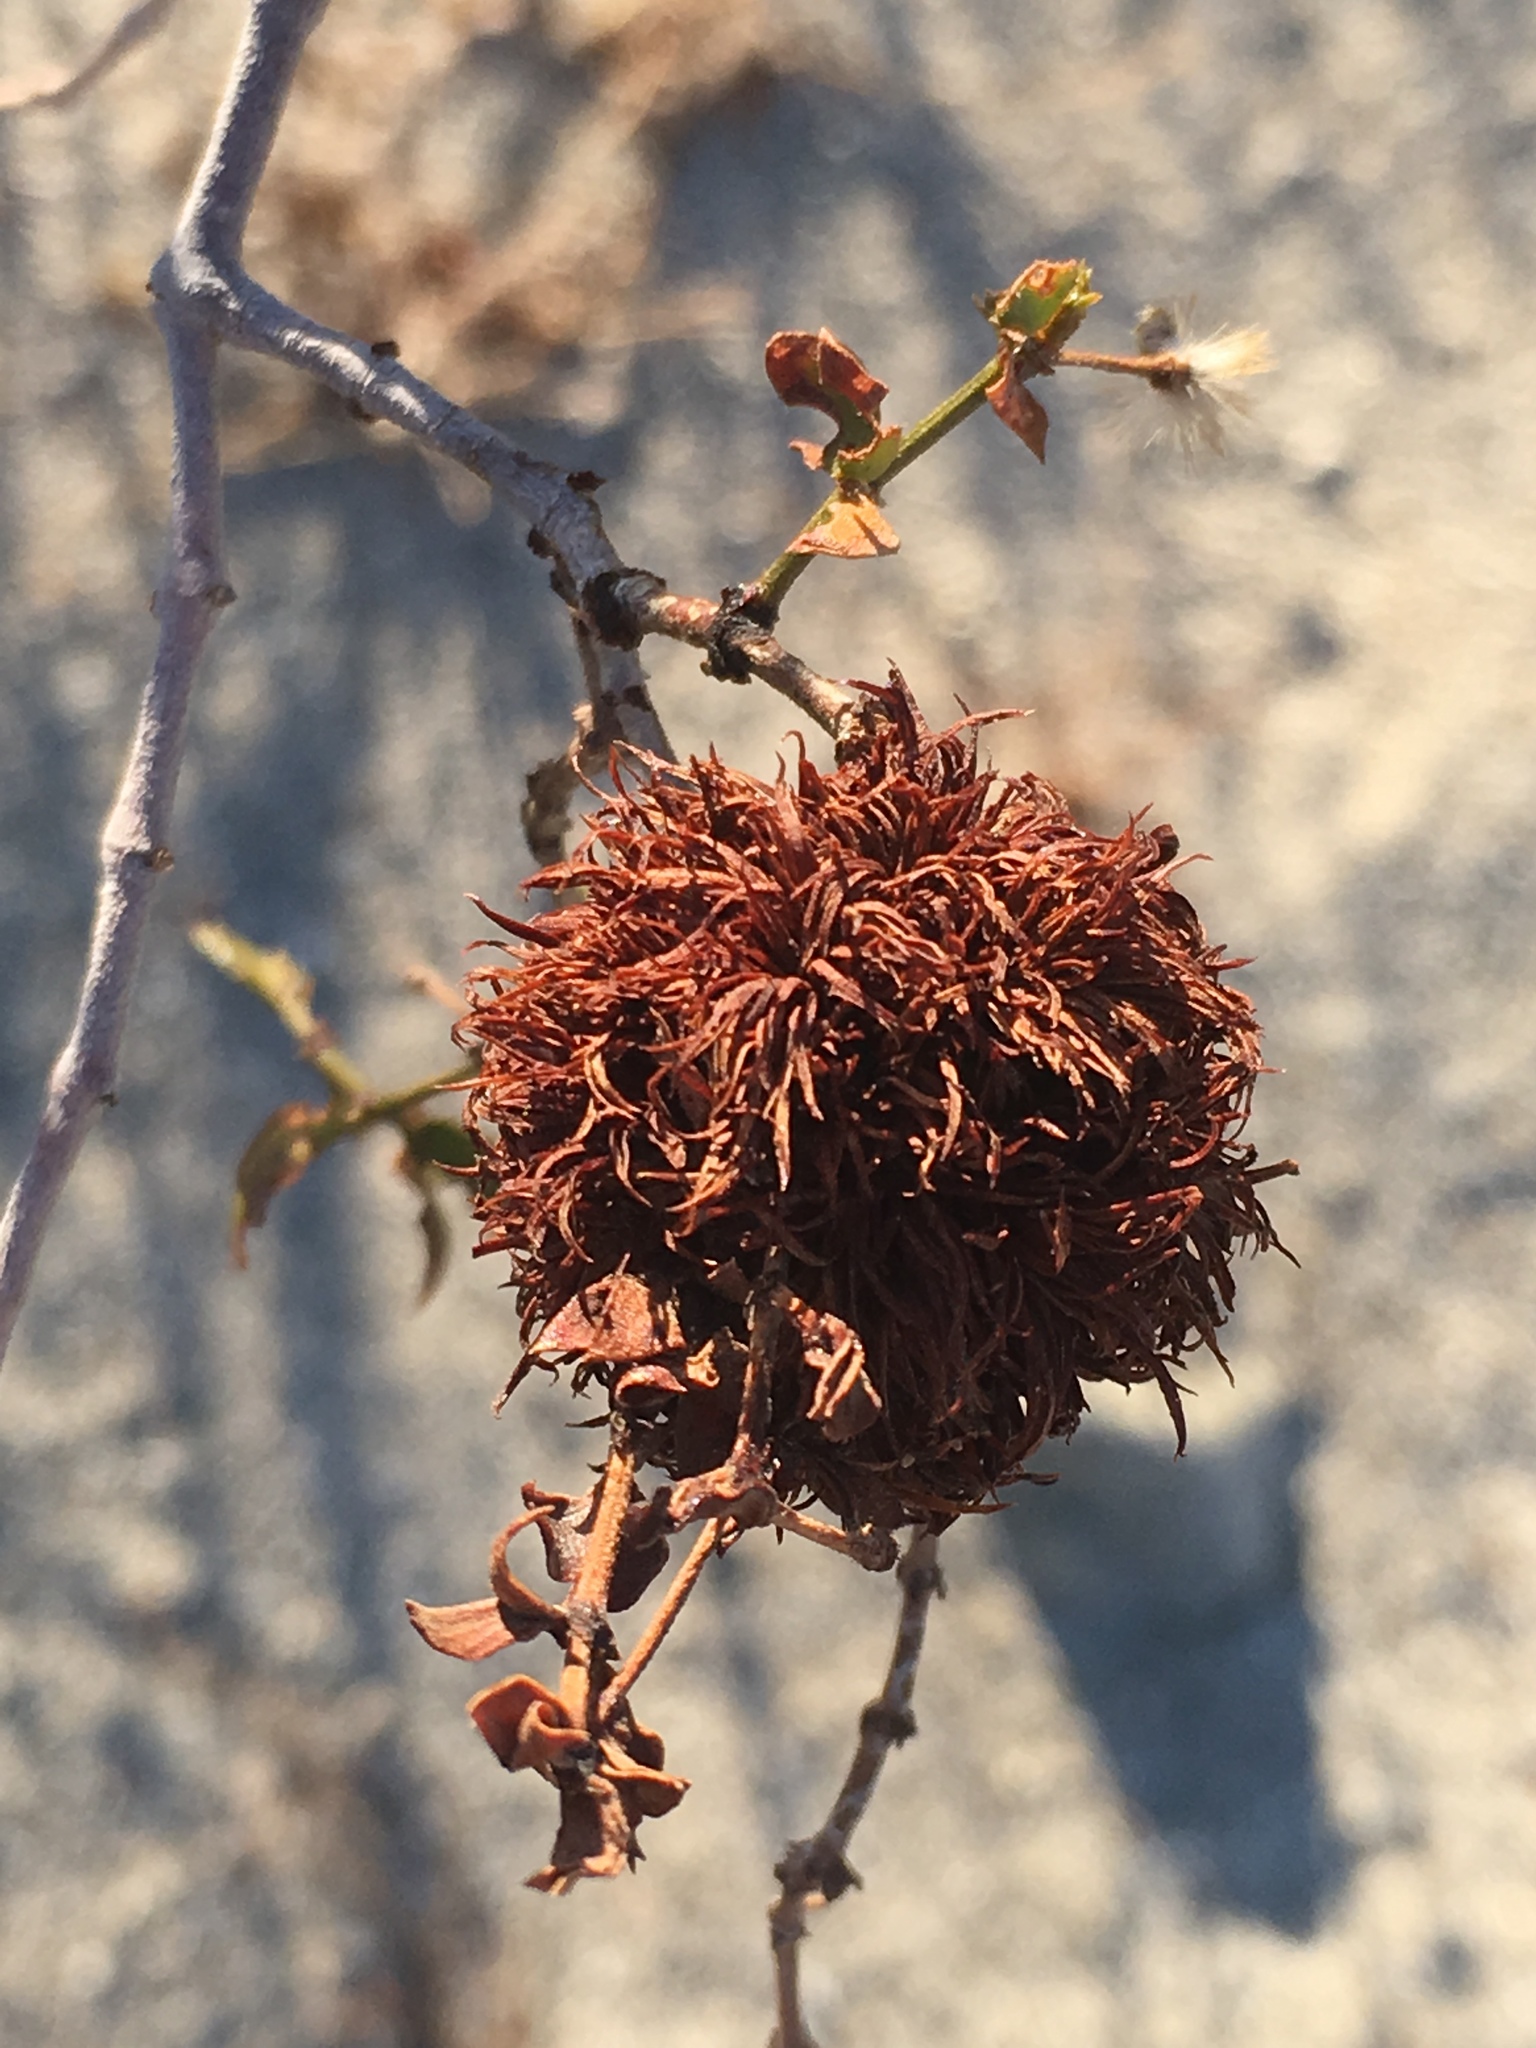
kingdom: Animalia
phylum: Arthropoda
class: Insecta
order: Diptera
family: Cecidomyiidae
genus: Asphondylia
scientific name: Asphondylia auripila
